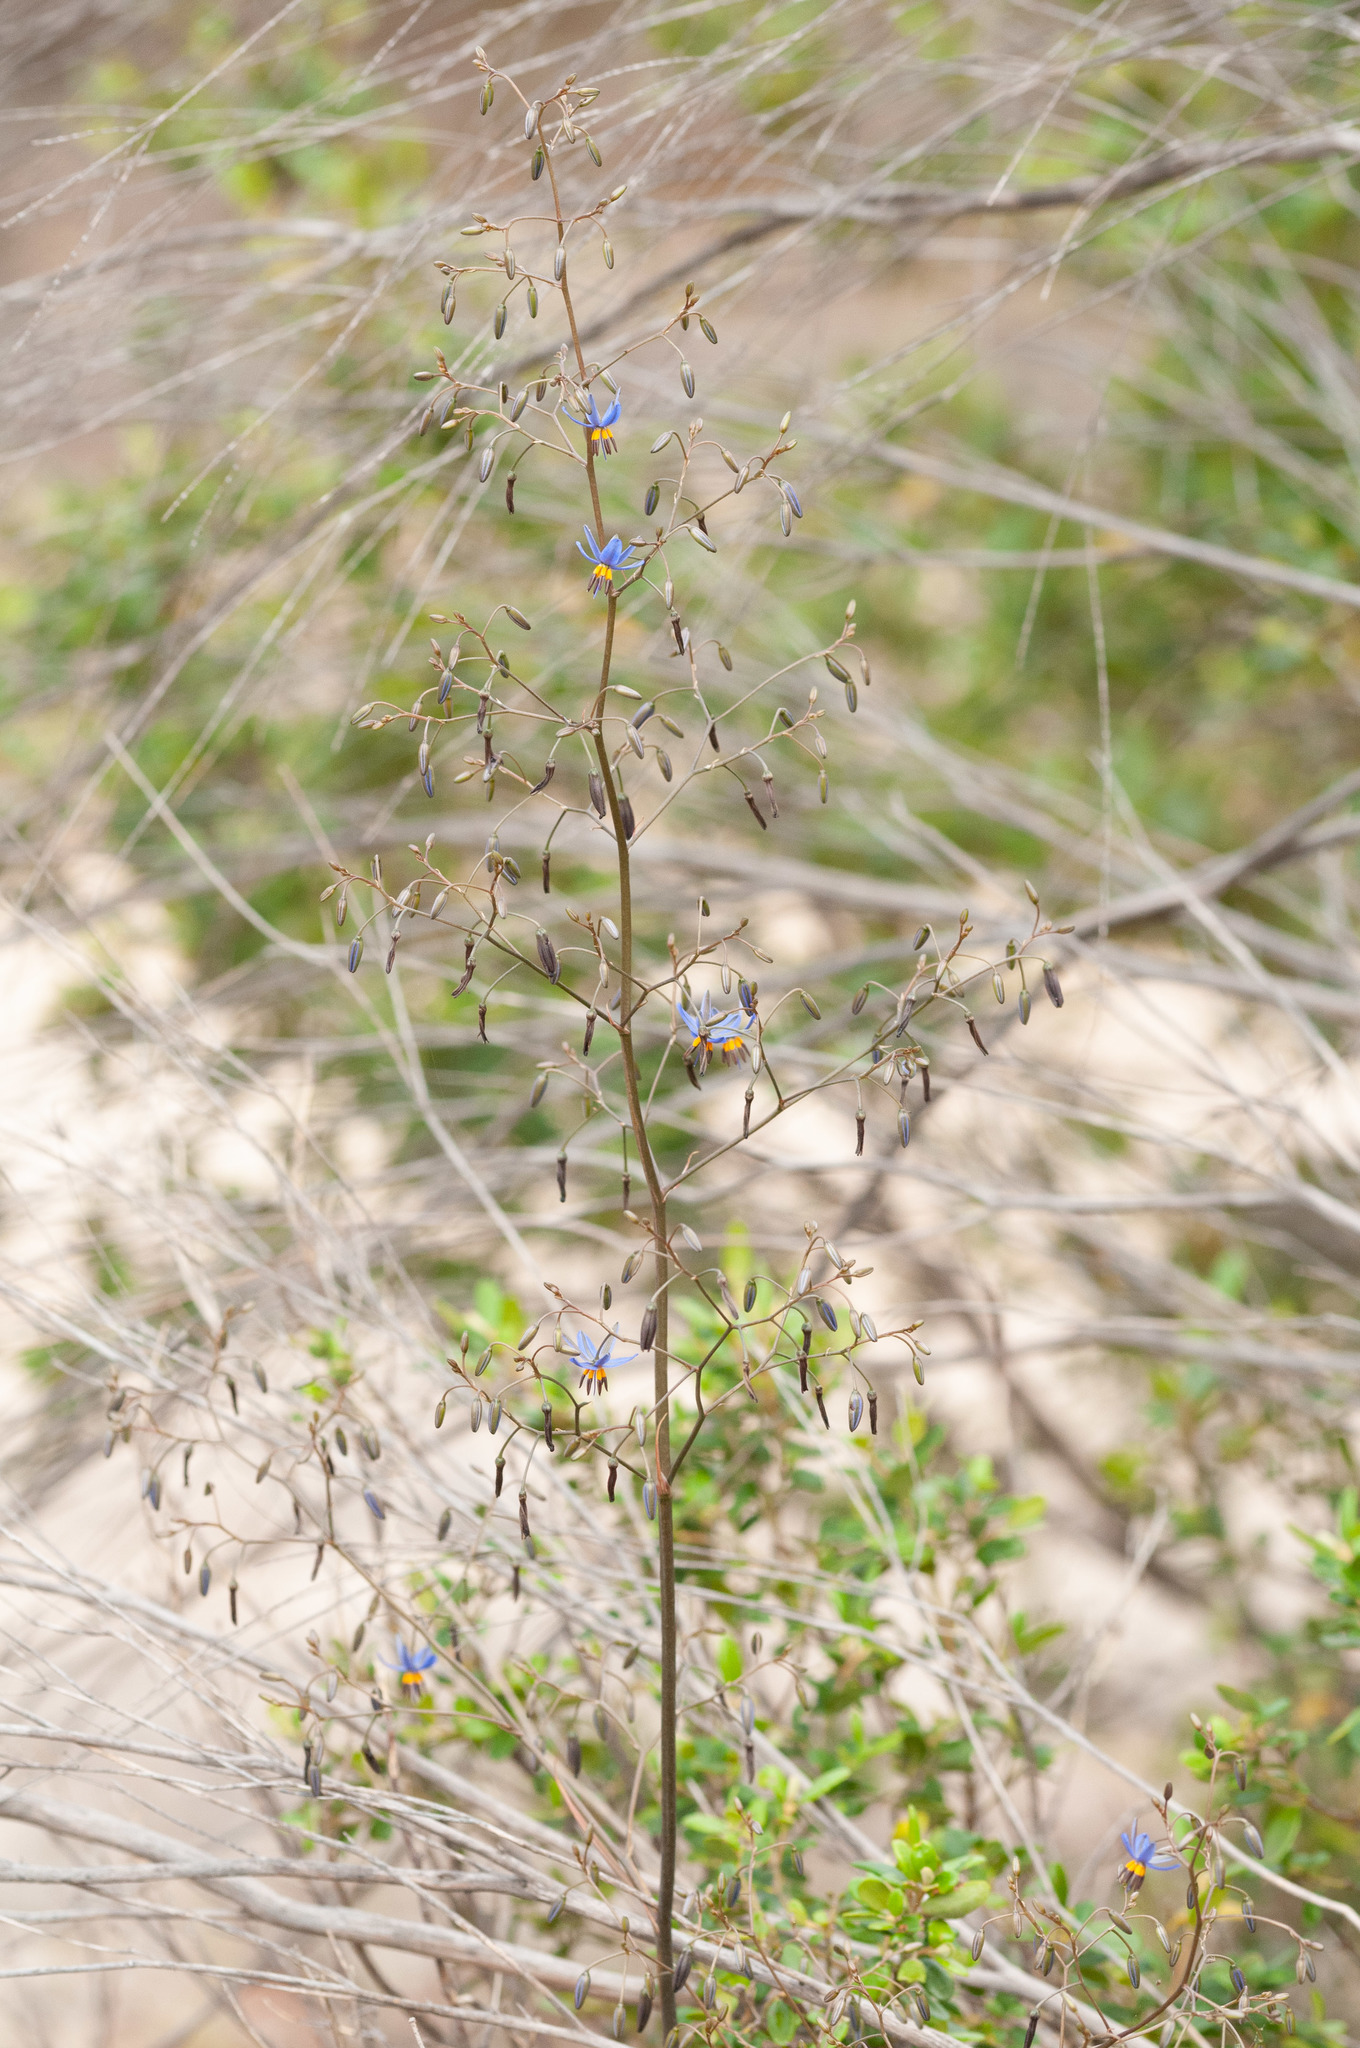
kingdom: Plantae
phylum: Tracheophyta
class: Liliopsida
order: Asparagales
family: Asphodelaceae
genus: Dianella
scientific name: Dianella
